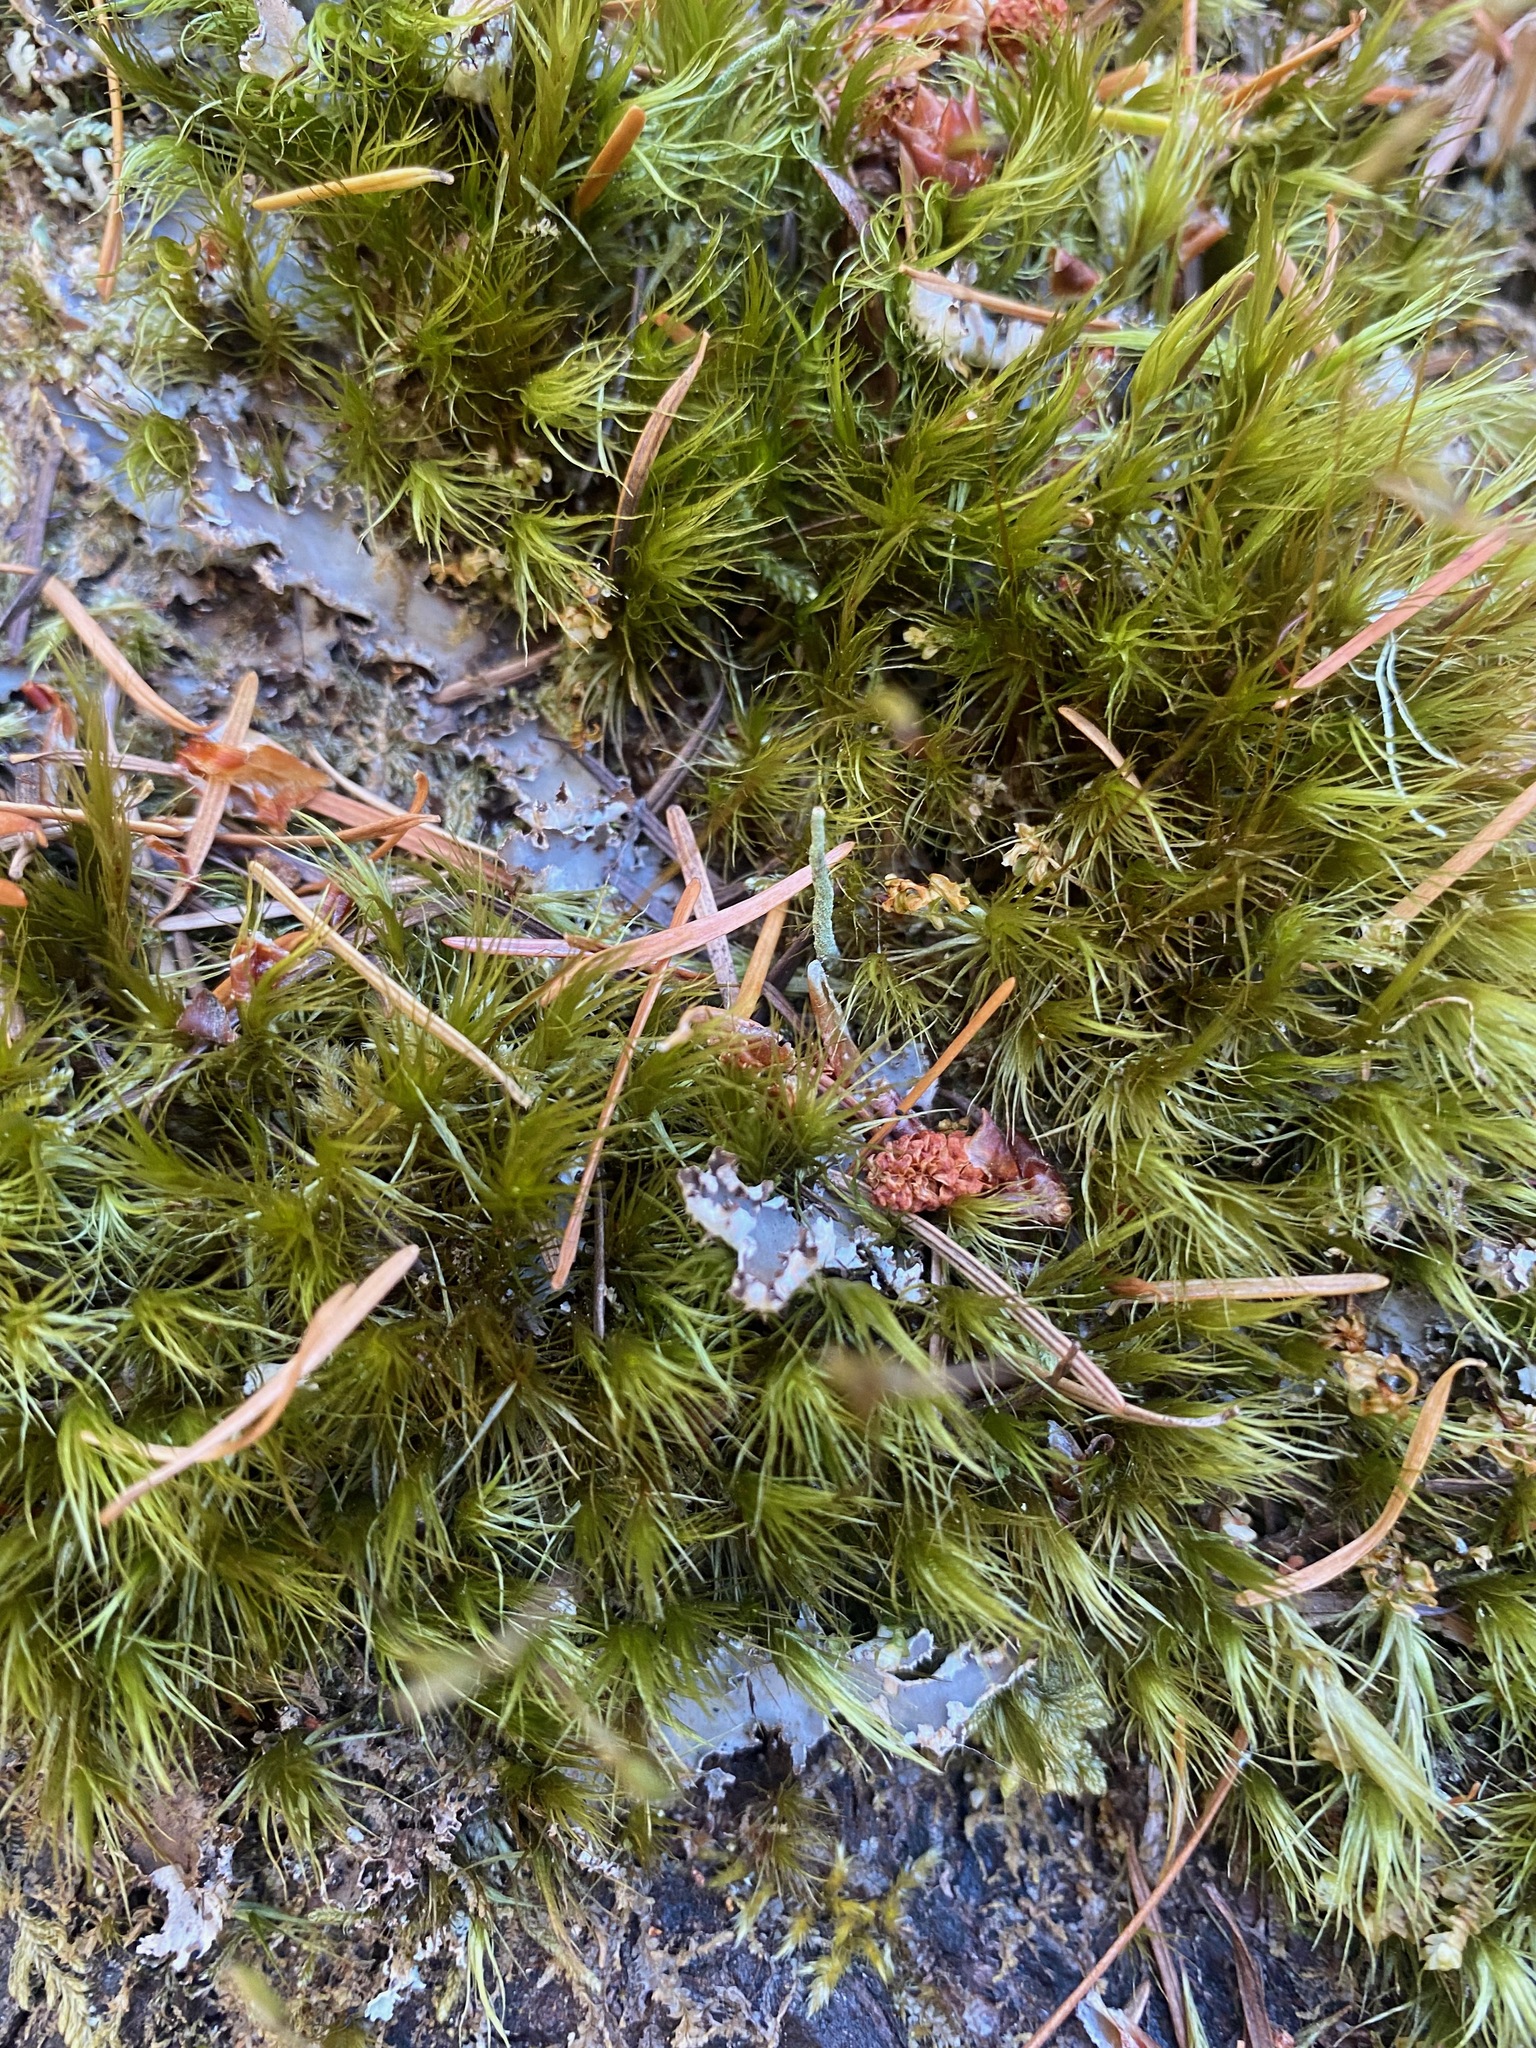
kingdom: Plantae
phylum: Bryophyta
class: Bryopsida
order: Dicranales
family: Dicranaceae
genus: Dicranum
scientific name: Dicranum scoparium
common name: Broom fork-moss
